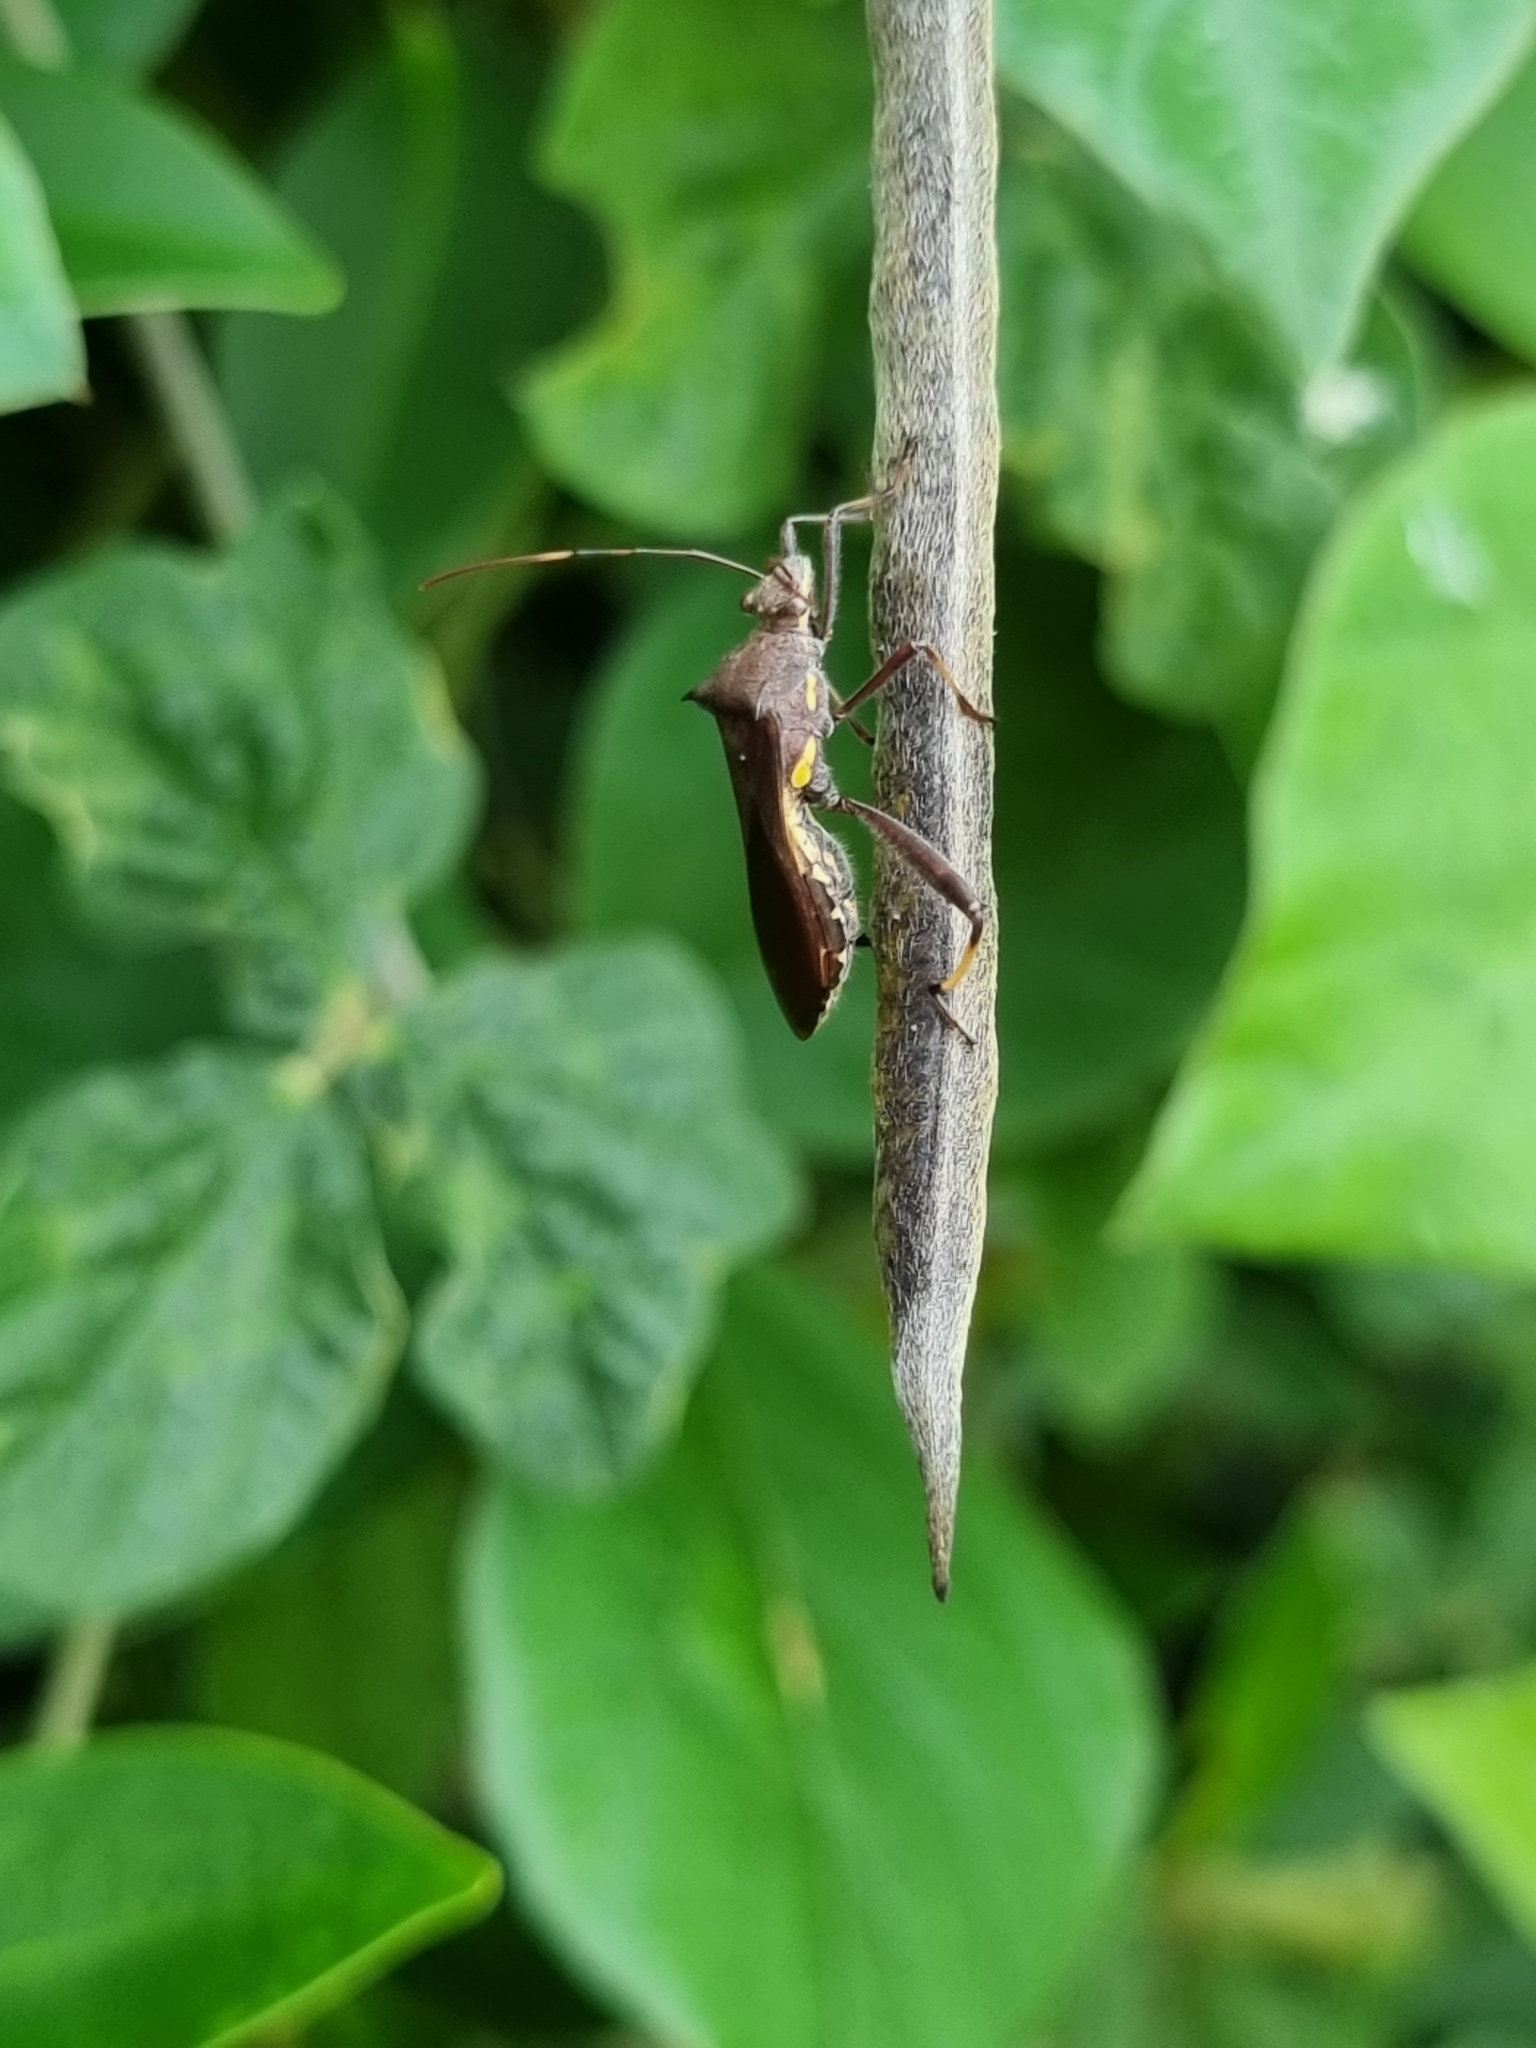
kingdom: Animalia
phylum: Arthropoda
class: Insecta
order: Hemiptera
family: Alydidae
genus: Riptortus
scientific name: Riptortus serripes
